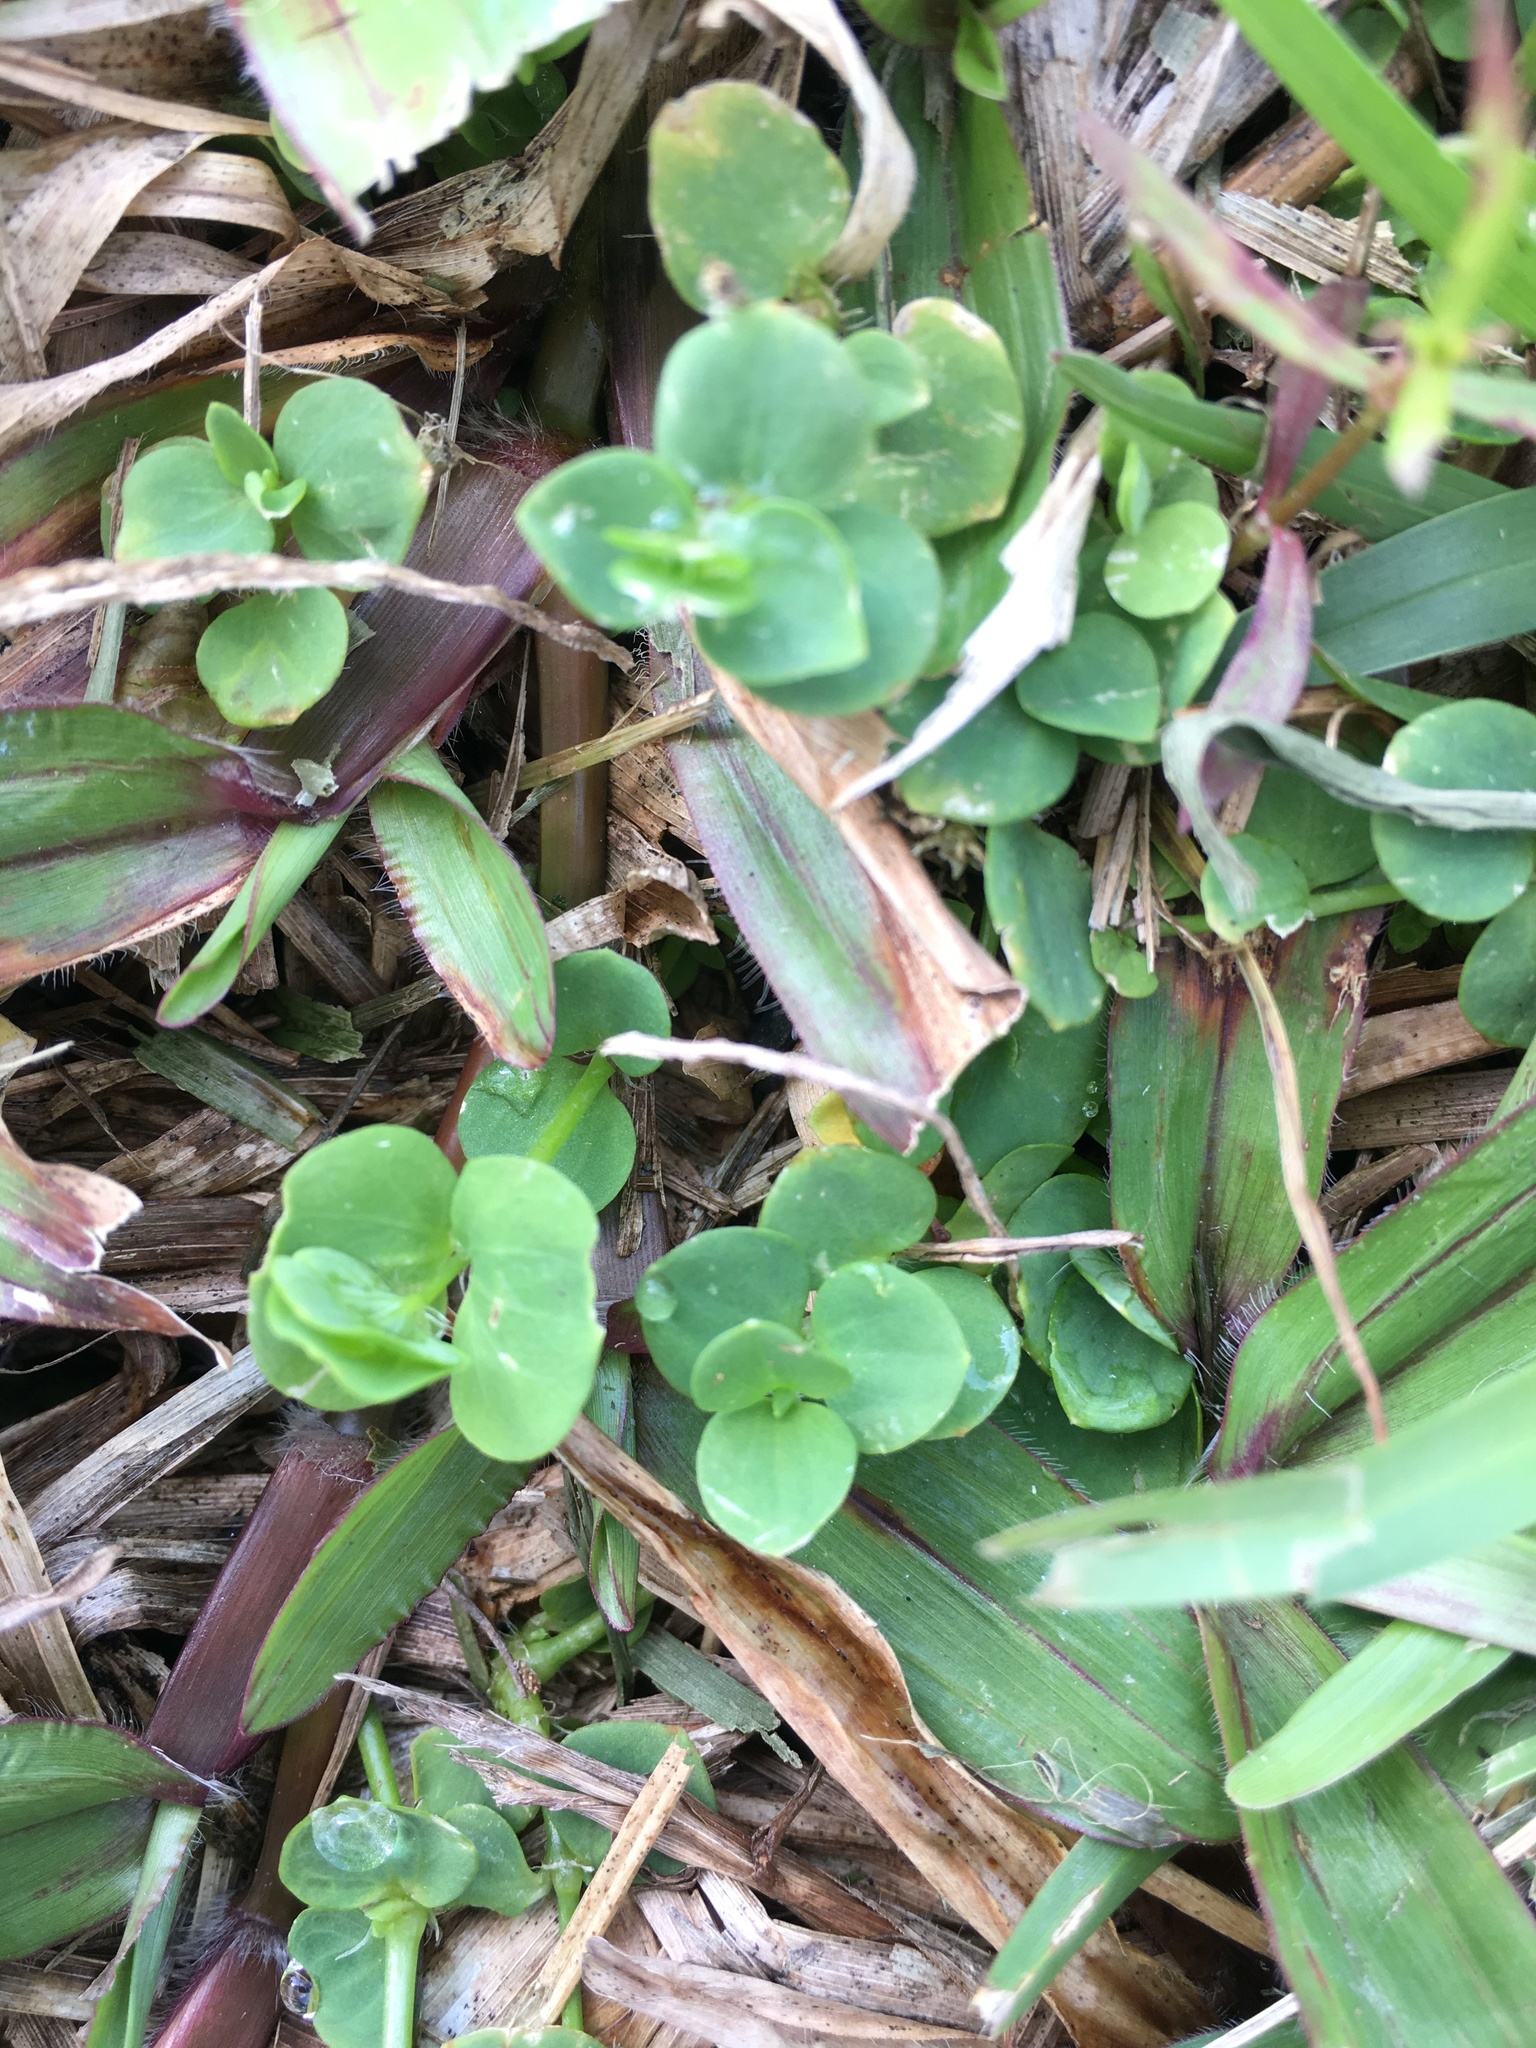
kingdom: Plantae
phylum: Tracheophyta
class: Magnoliopsida
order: Caryophyllales
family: Caryophyllaceae
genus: Drymaria
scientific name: Drymaria cordata
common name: Whitesnow
